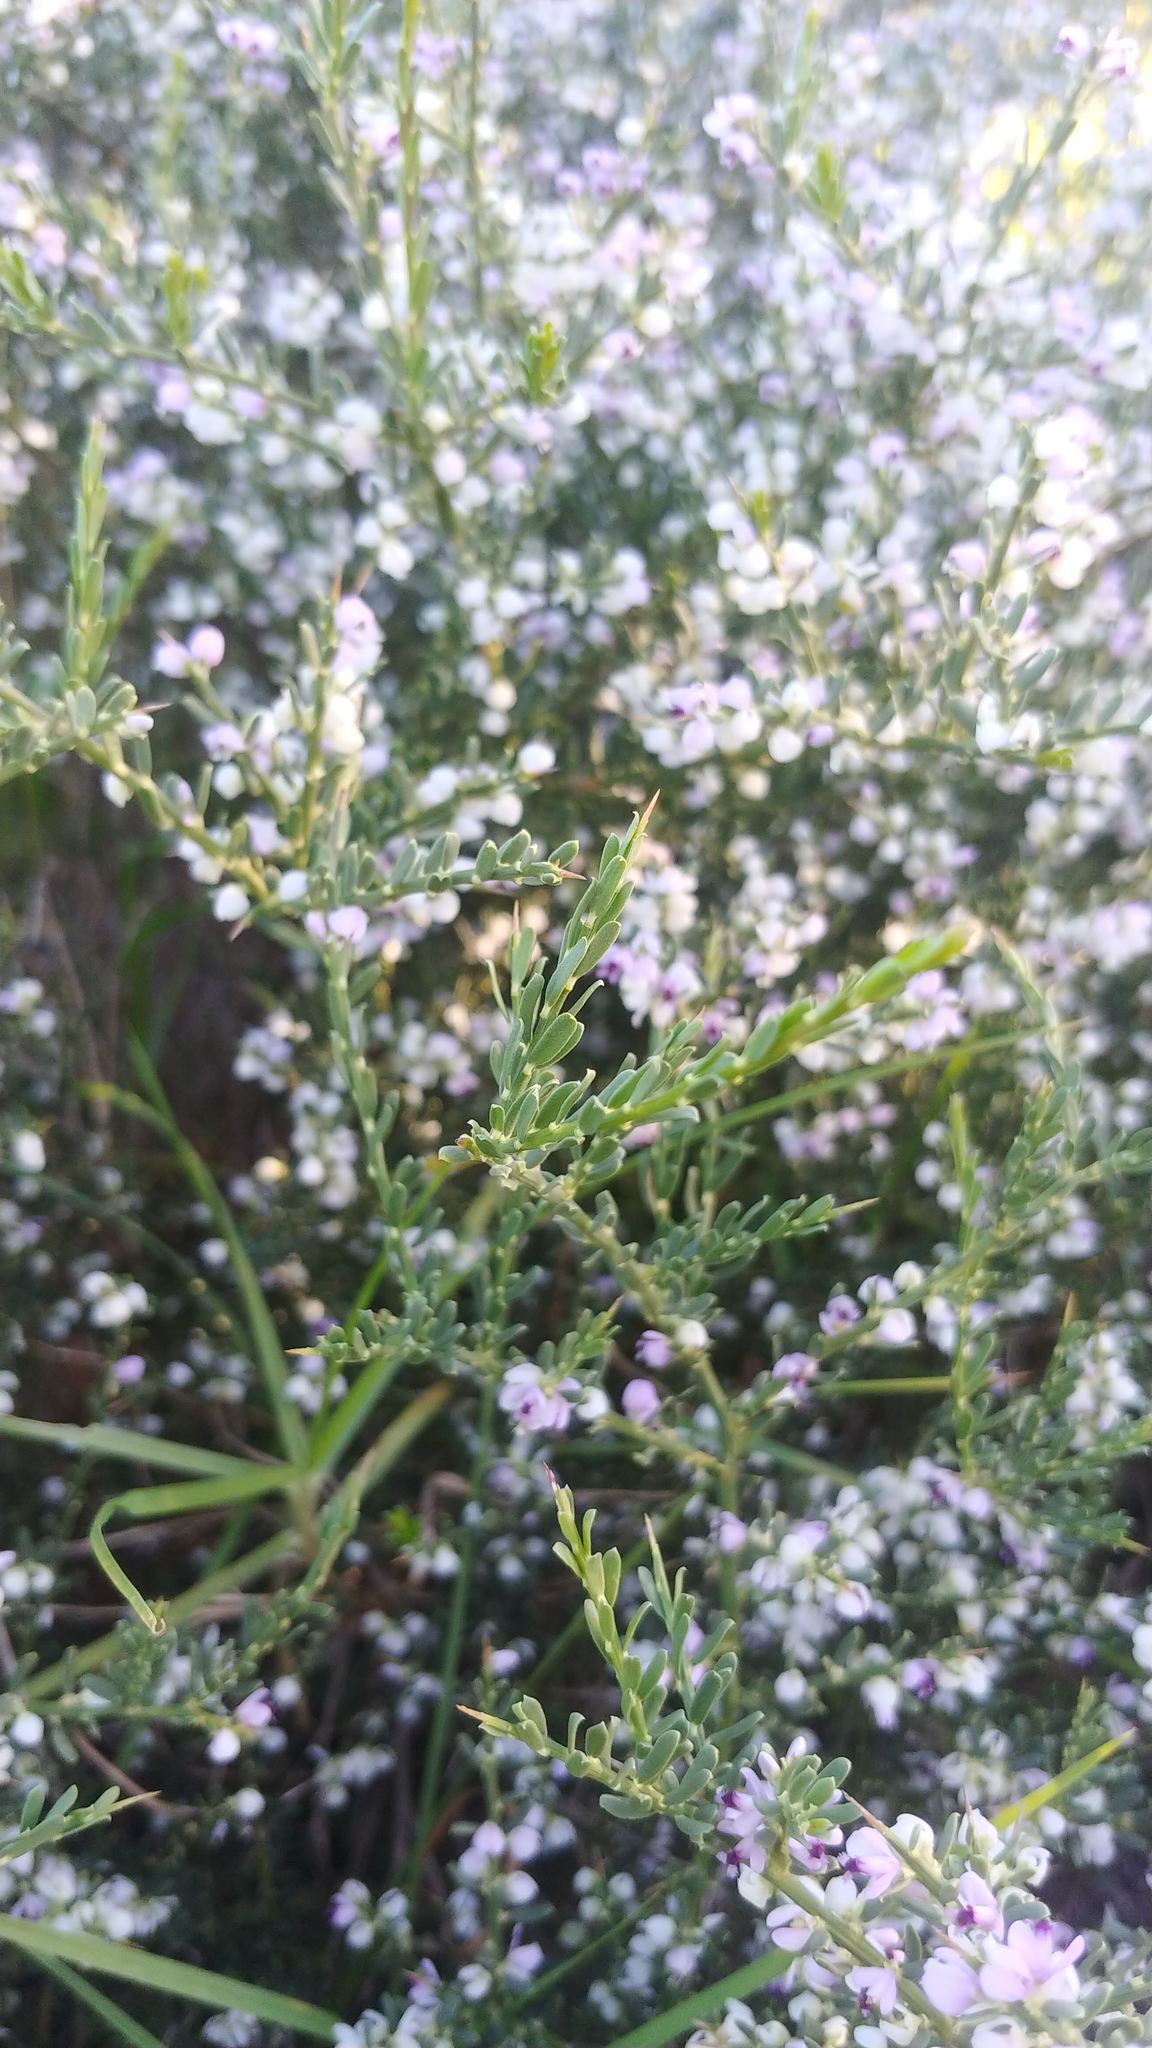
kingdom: Plantae
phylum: Tracheophyta
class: Magnoliopsida
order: Fabales
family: Polygalaceae
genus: Muraltia
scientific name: Muraltia spinosa
